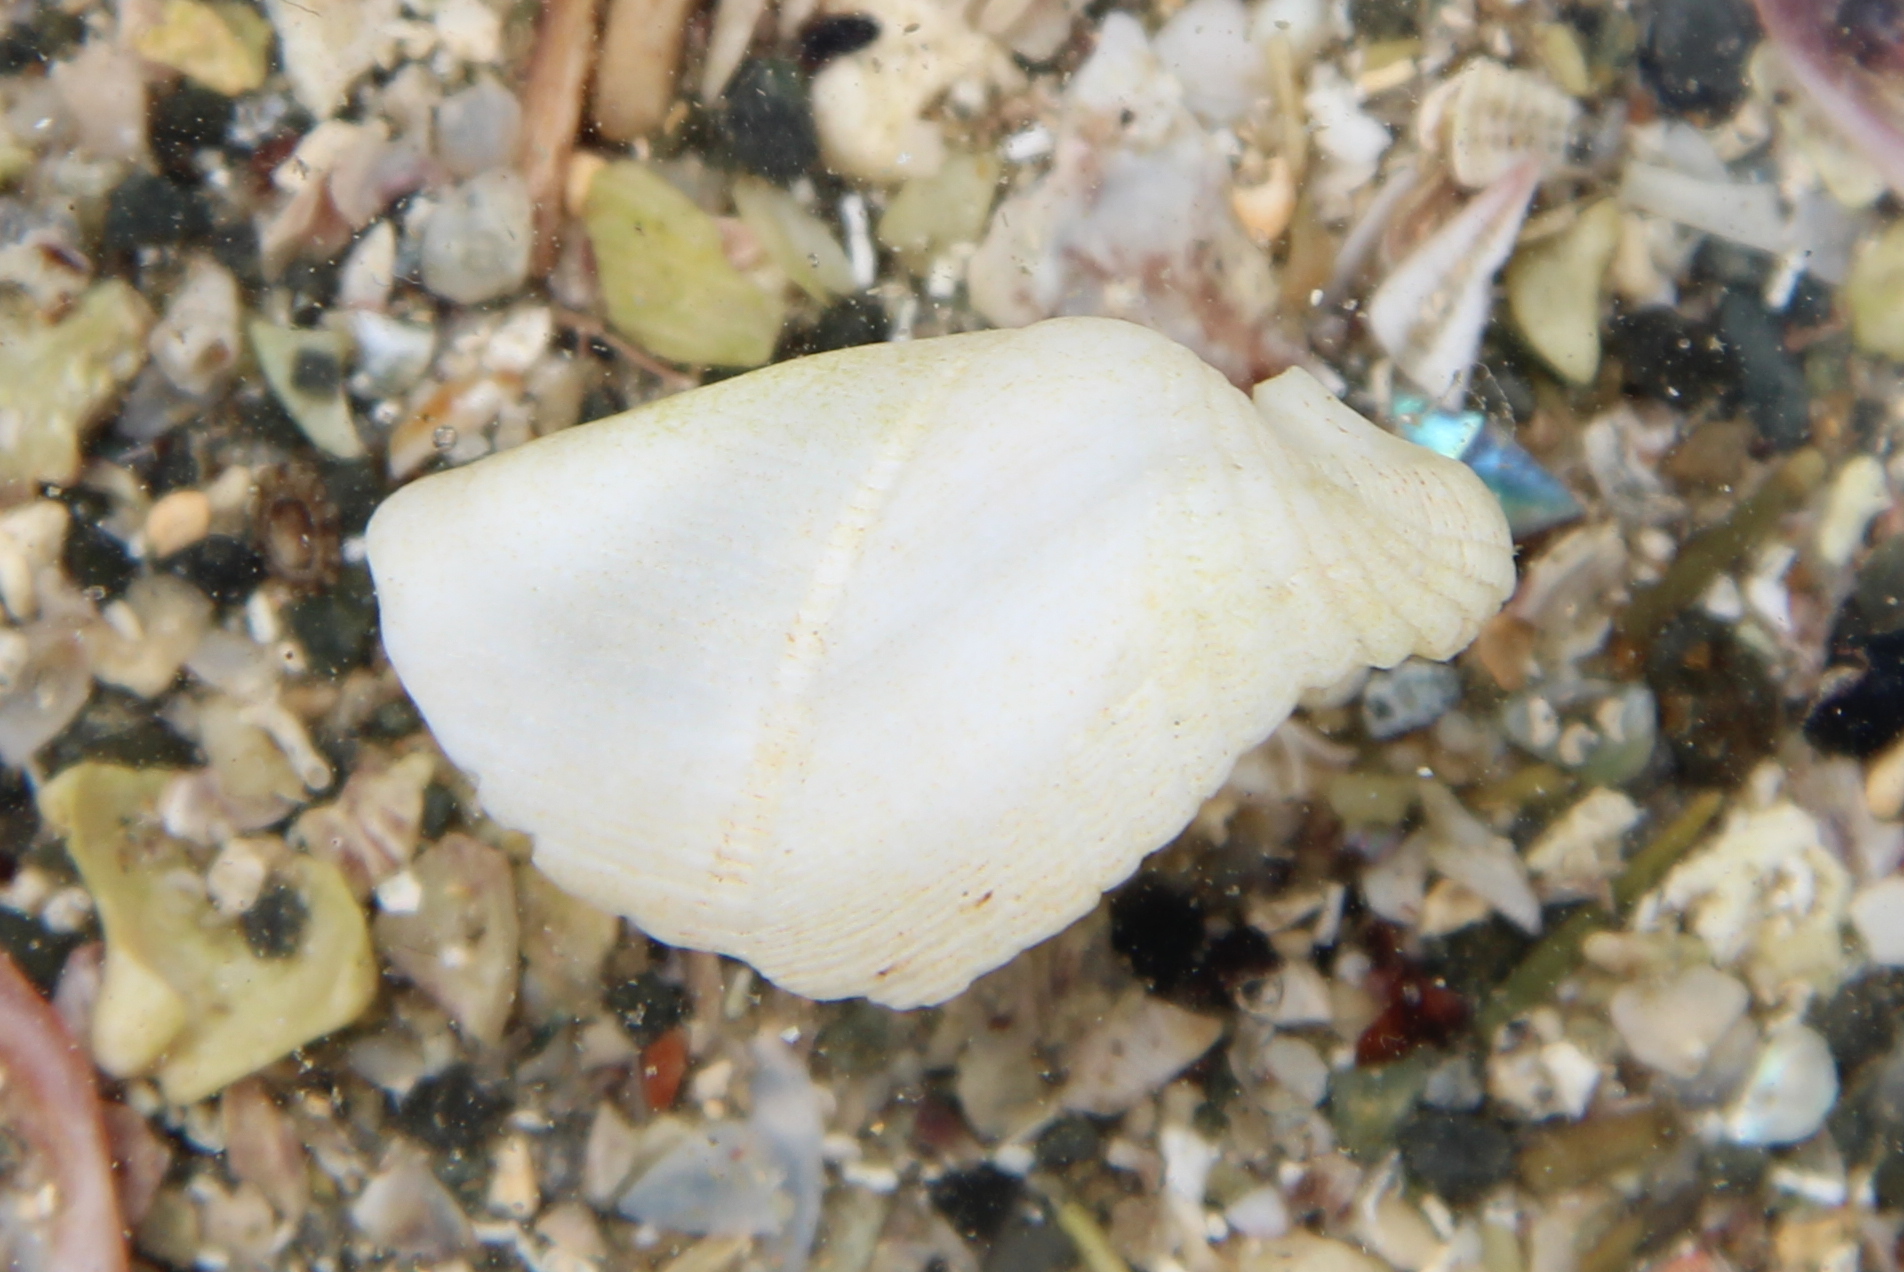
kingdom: Animalia
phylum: Mollusca
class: Bivalvia
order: Myida
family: Pholadidae
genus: Pholadidea
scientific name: Pholadidea suteri
